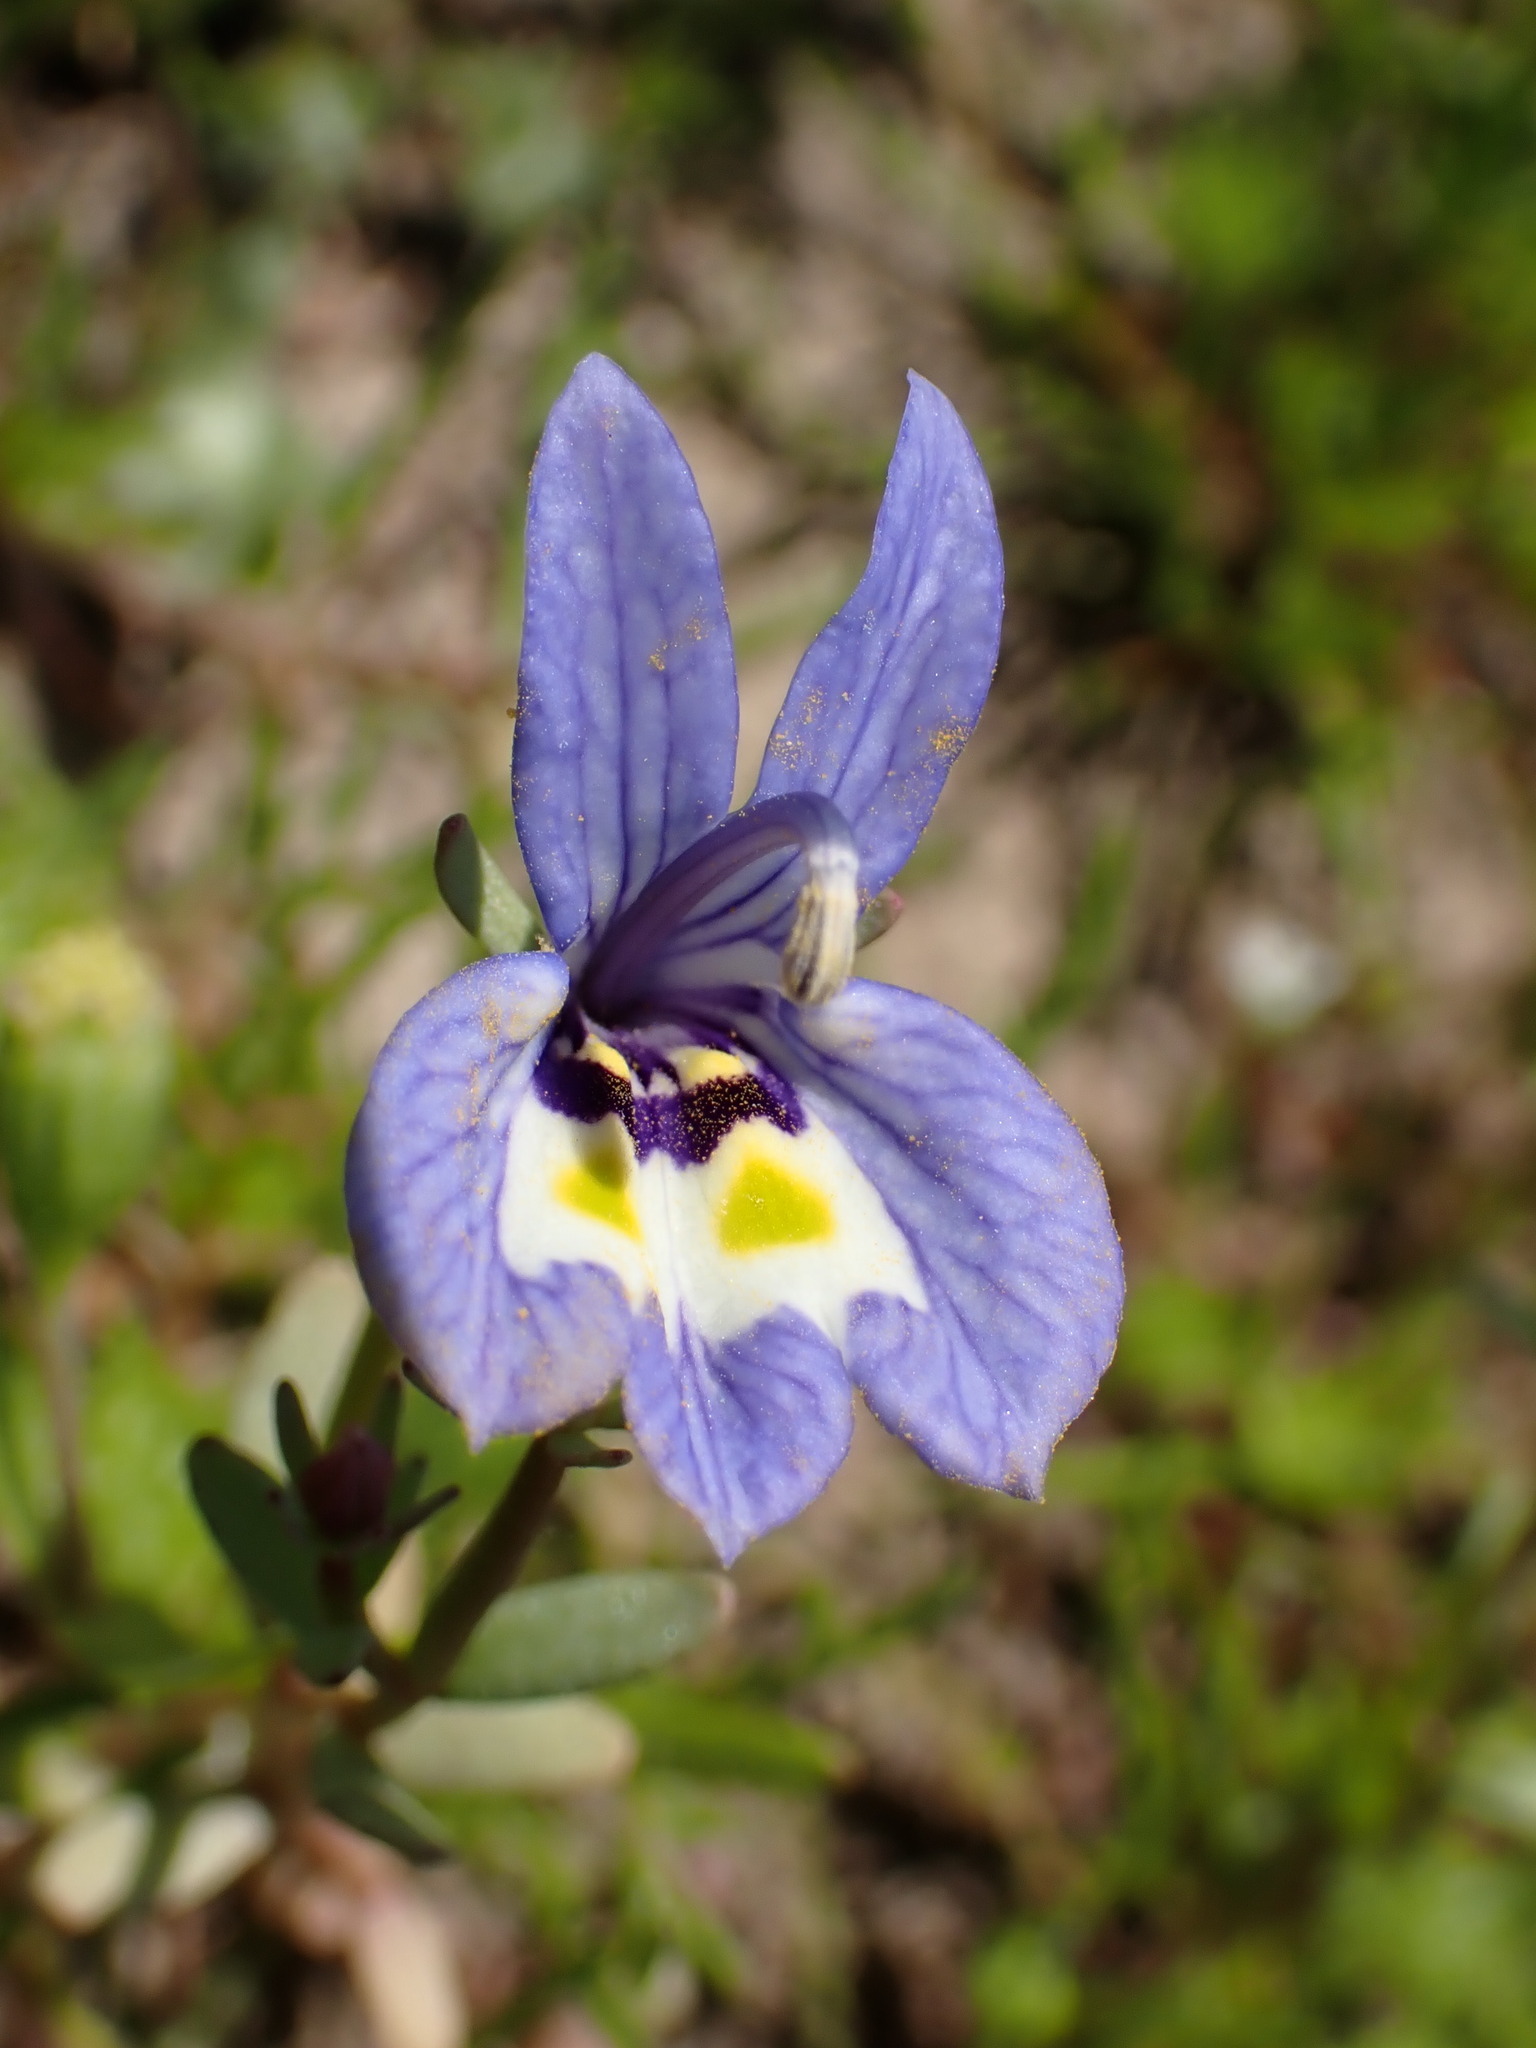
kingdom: Plantae
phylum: Tracheophyta
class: Magnoliopsida
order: Asterales
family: Campanulaceae
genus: Downingia
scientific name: Downingia insignis
